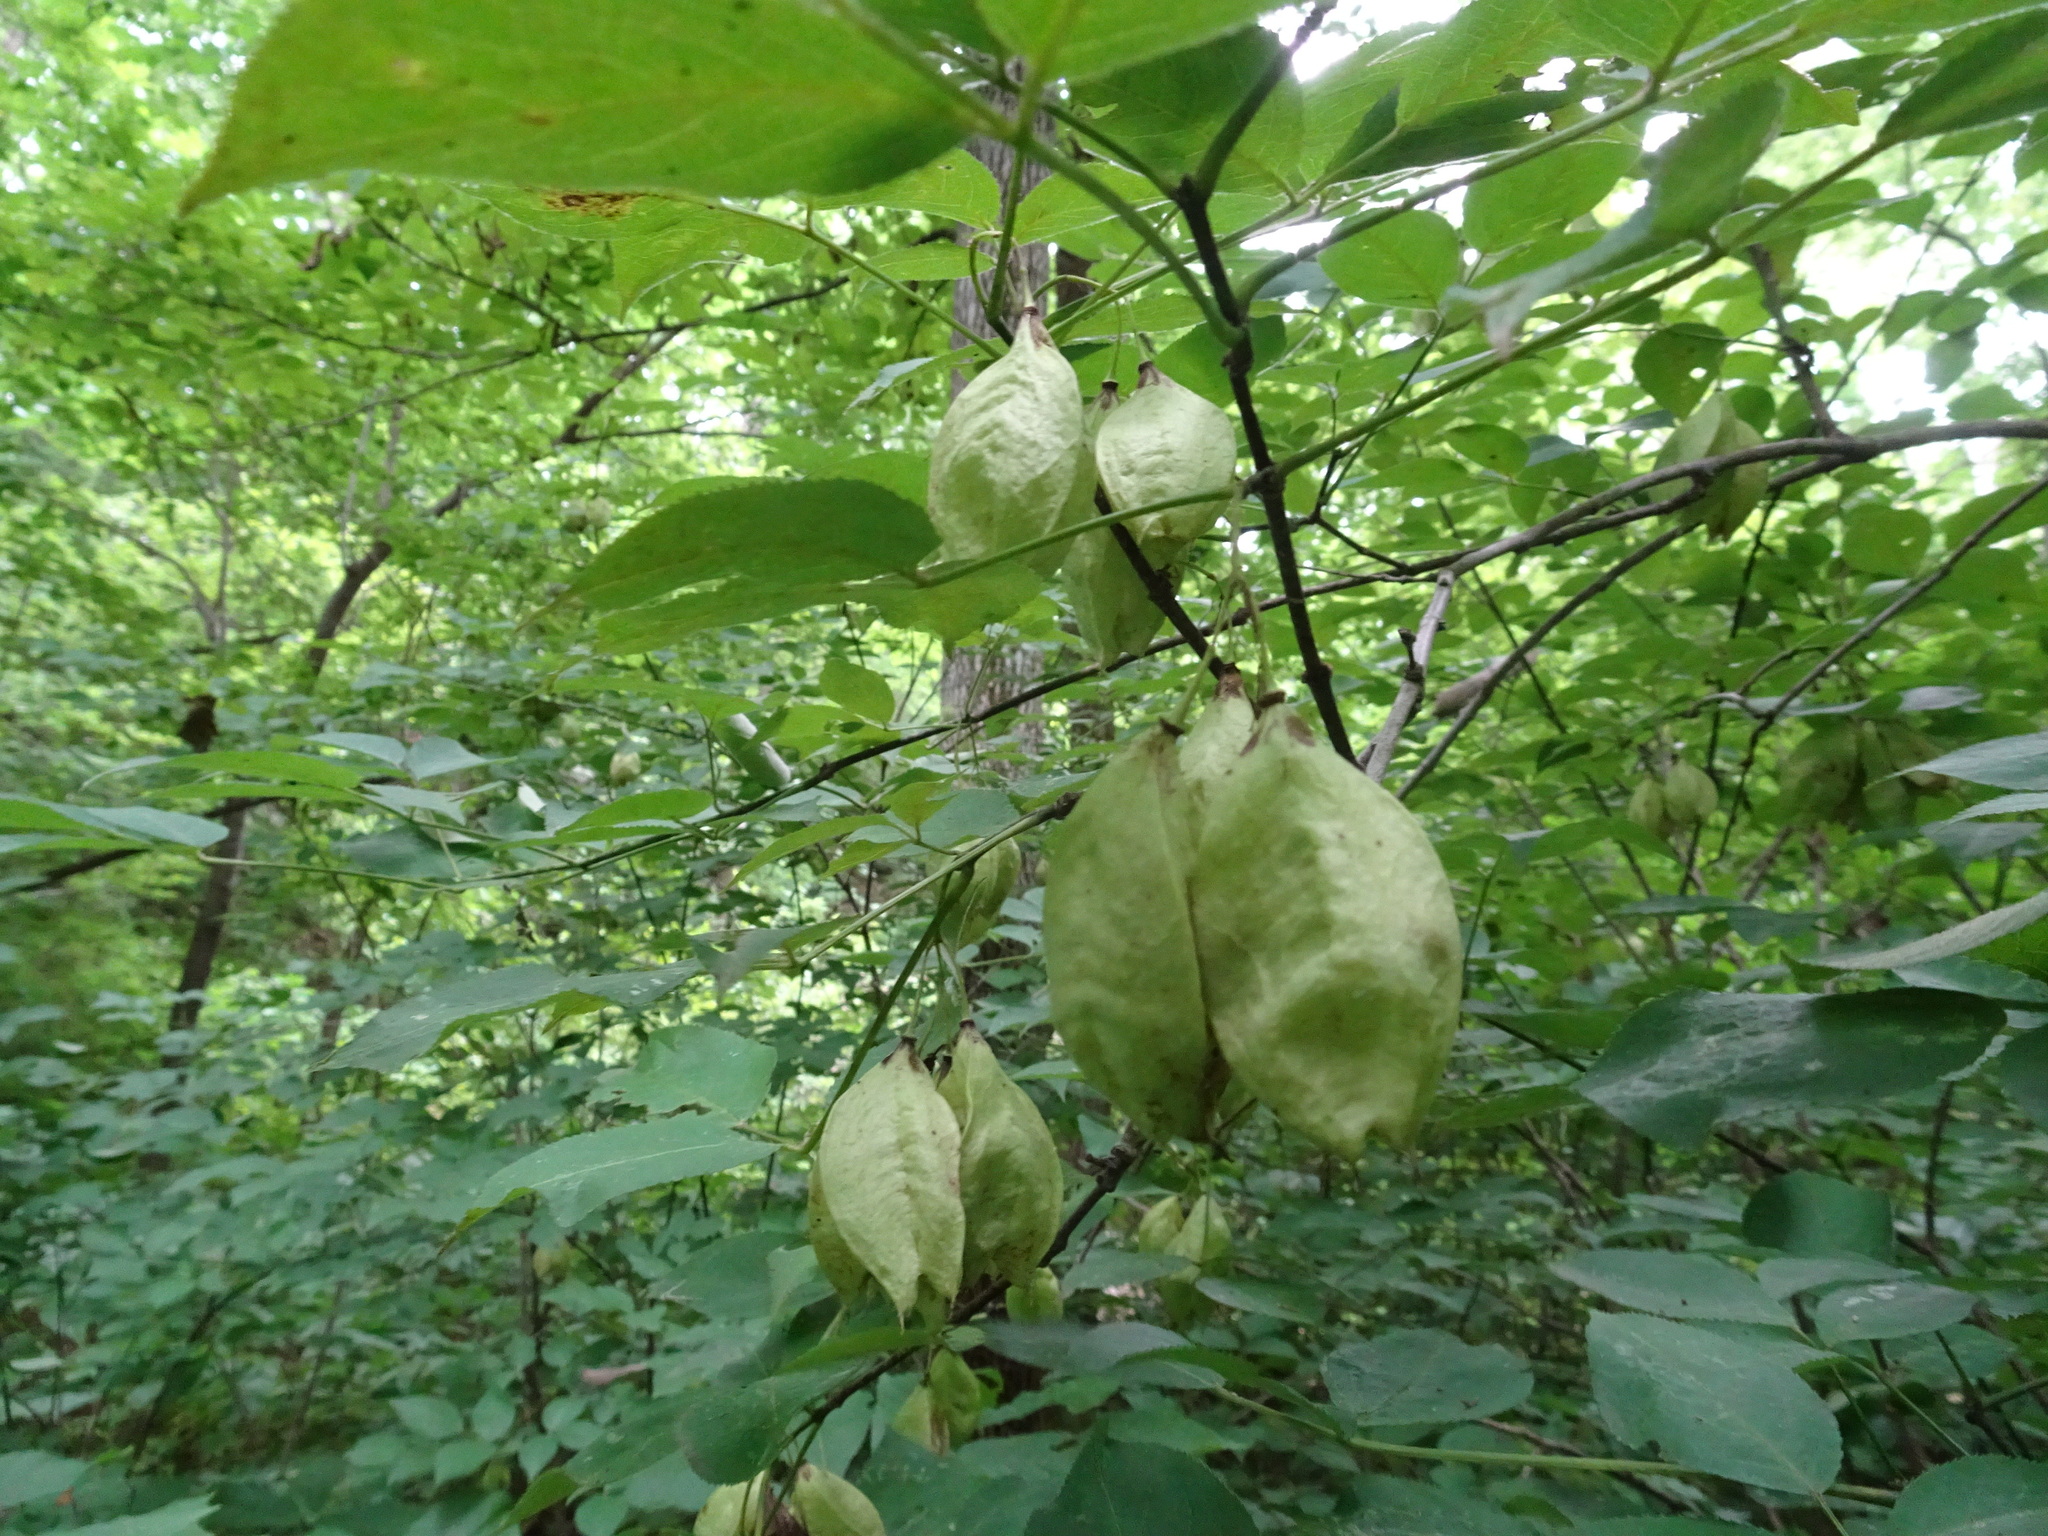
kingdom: Plantae
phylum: Tracheophyta
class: Magnoliopsida
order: Crossosomatales
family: Staphyleaceae
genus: Staphylea
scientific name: Staphylea trifolia
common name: American bladdernut
